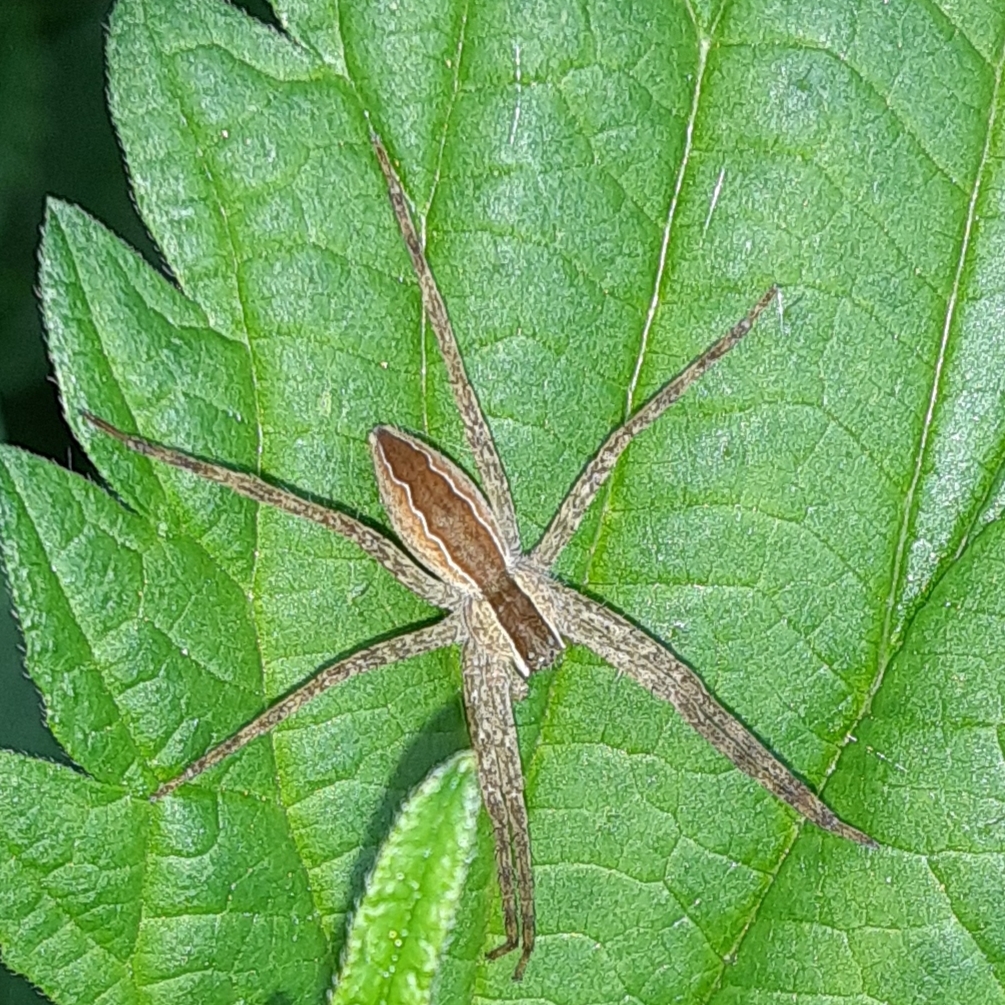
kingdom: Animalia
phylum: Arthropoda
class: Arachnida
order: Araneae
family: Pisauridae
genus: Pisaurina
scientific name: Pisaurina mira
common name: American nursery web spider
